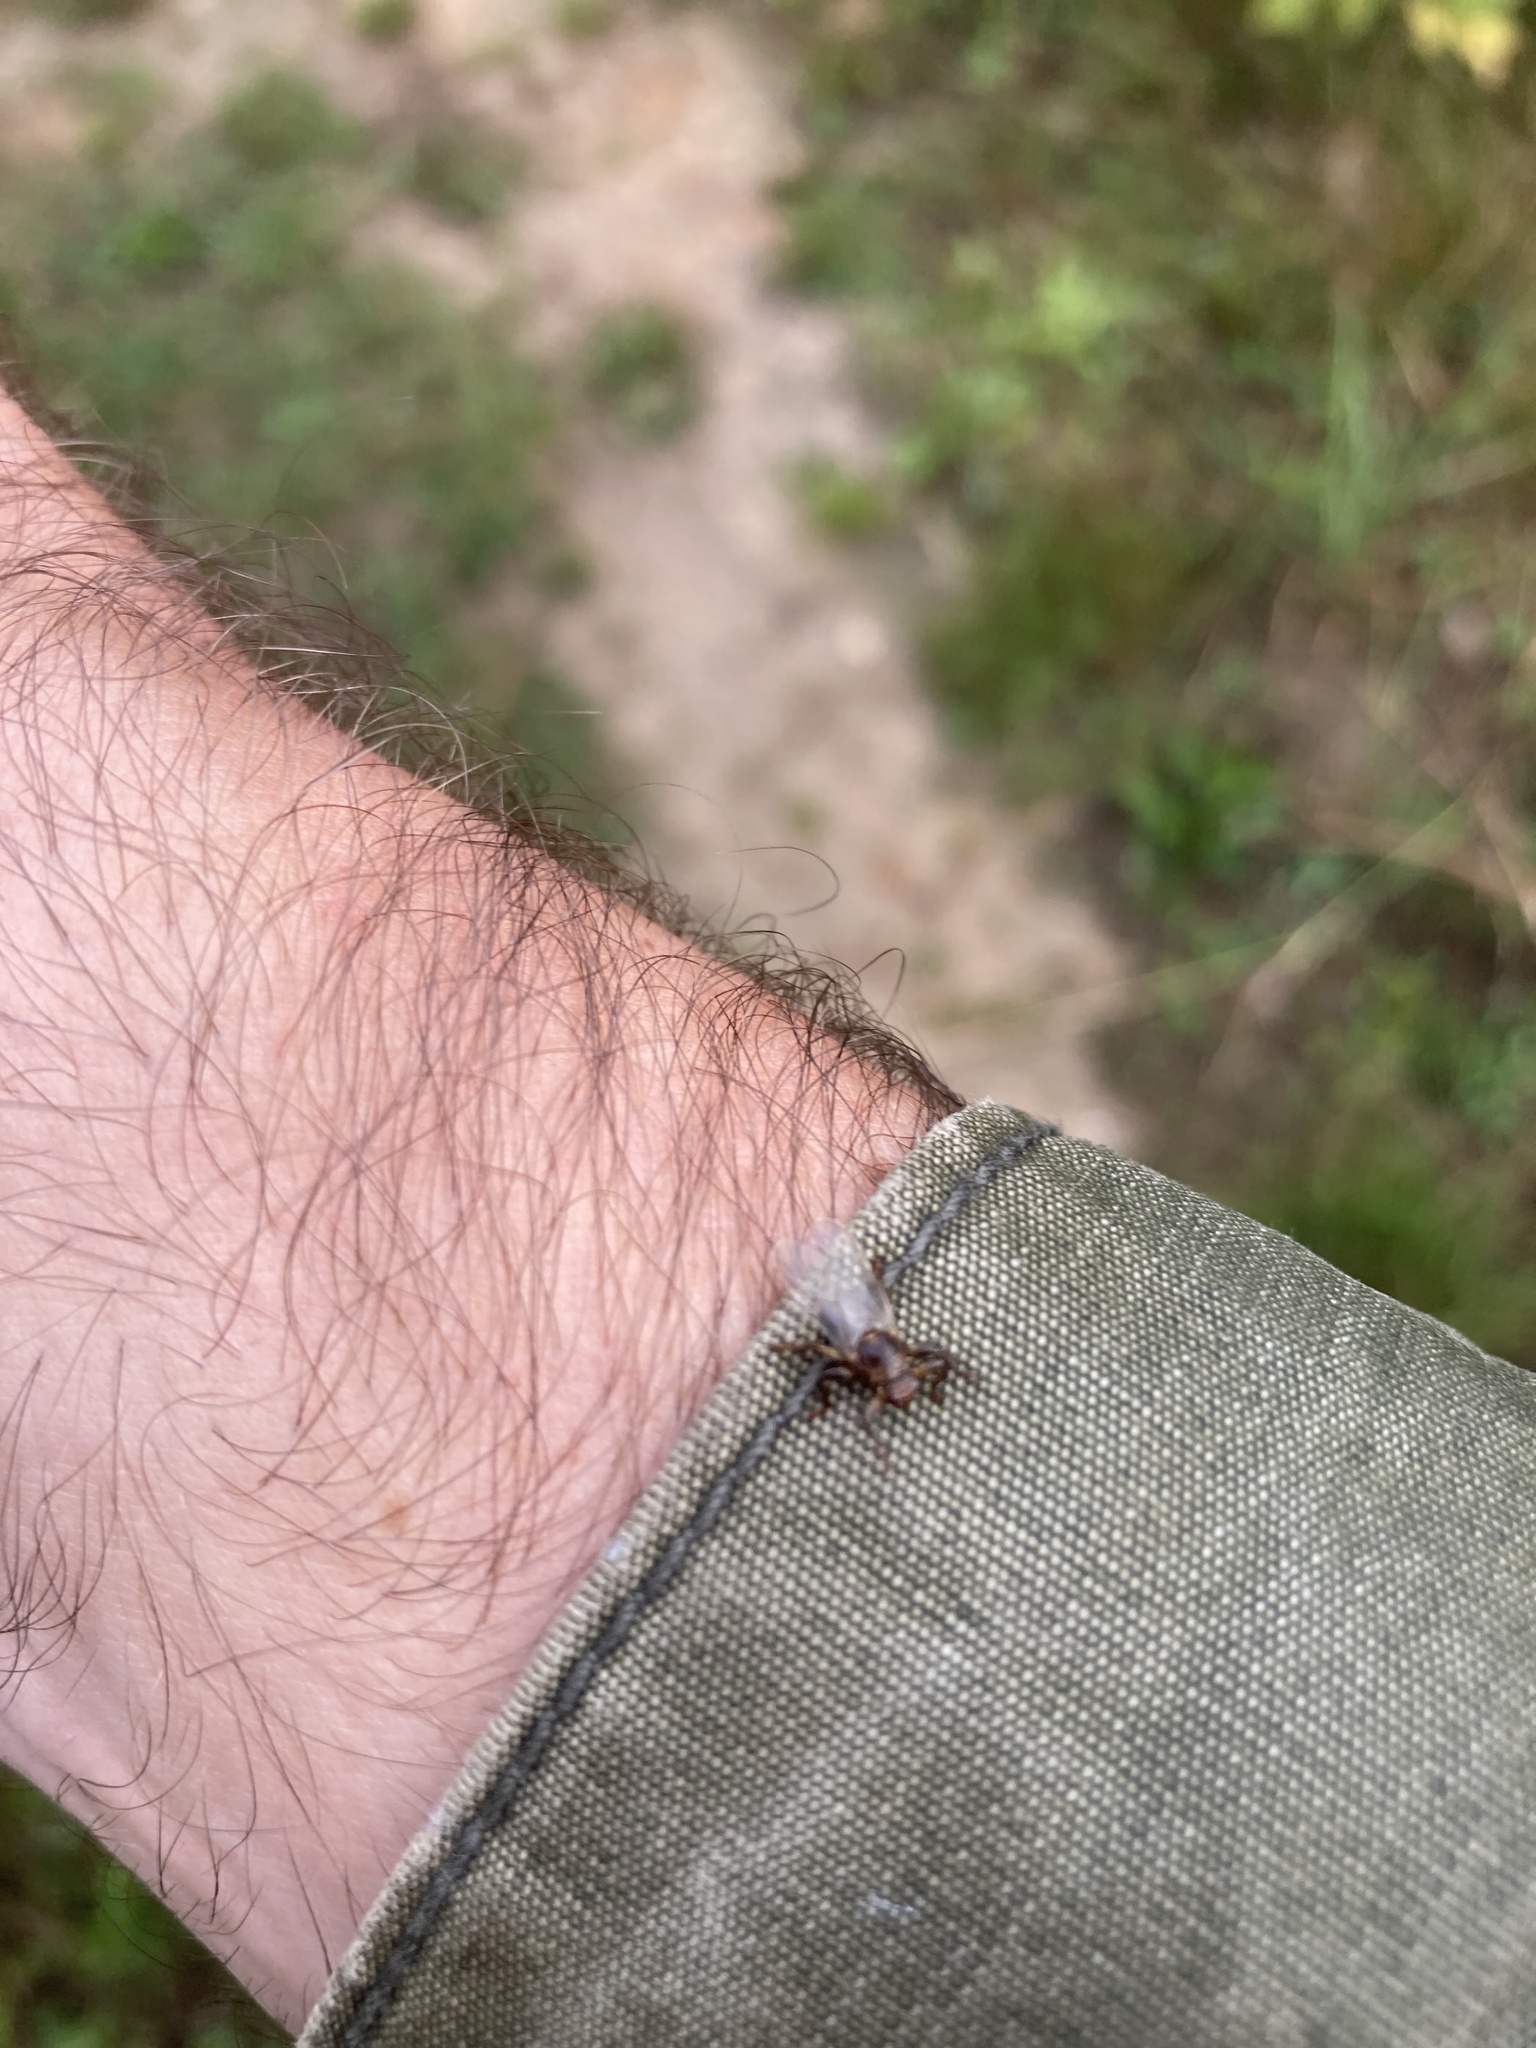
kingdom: Animalia
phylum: Arthropoda
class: Insecta
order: Diptera
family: Hippoboscidae
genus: Lipoptena
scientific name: Lipoptena cervi
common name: Deer ked
